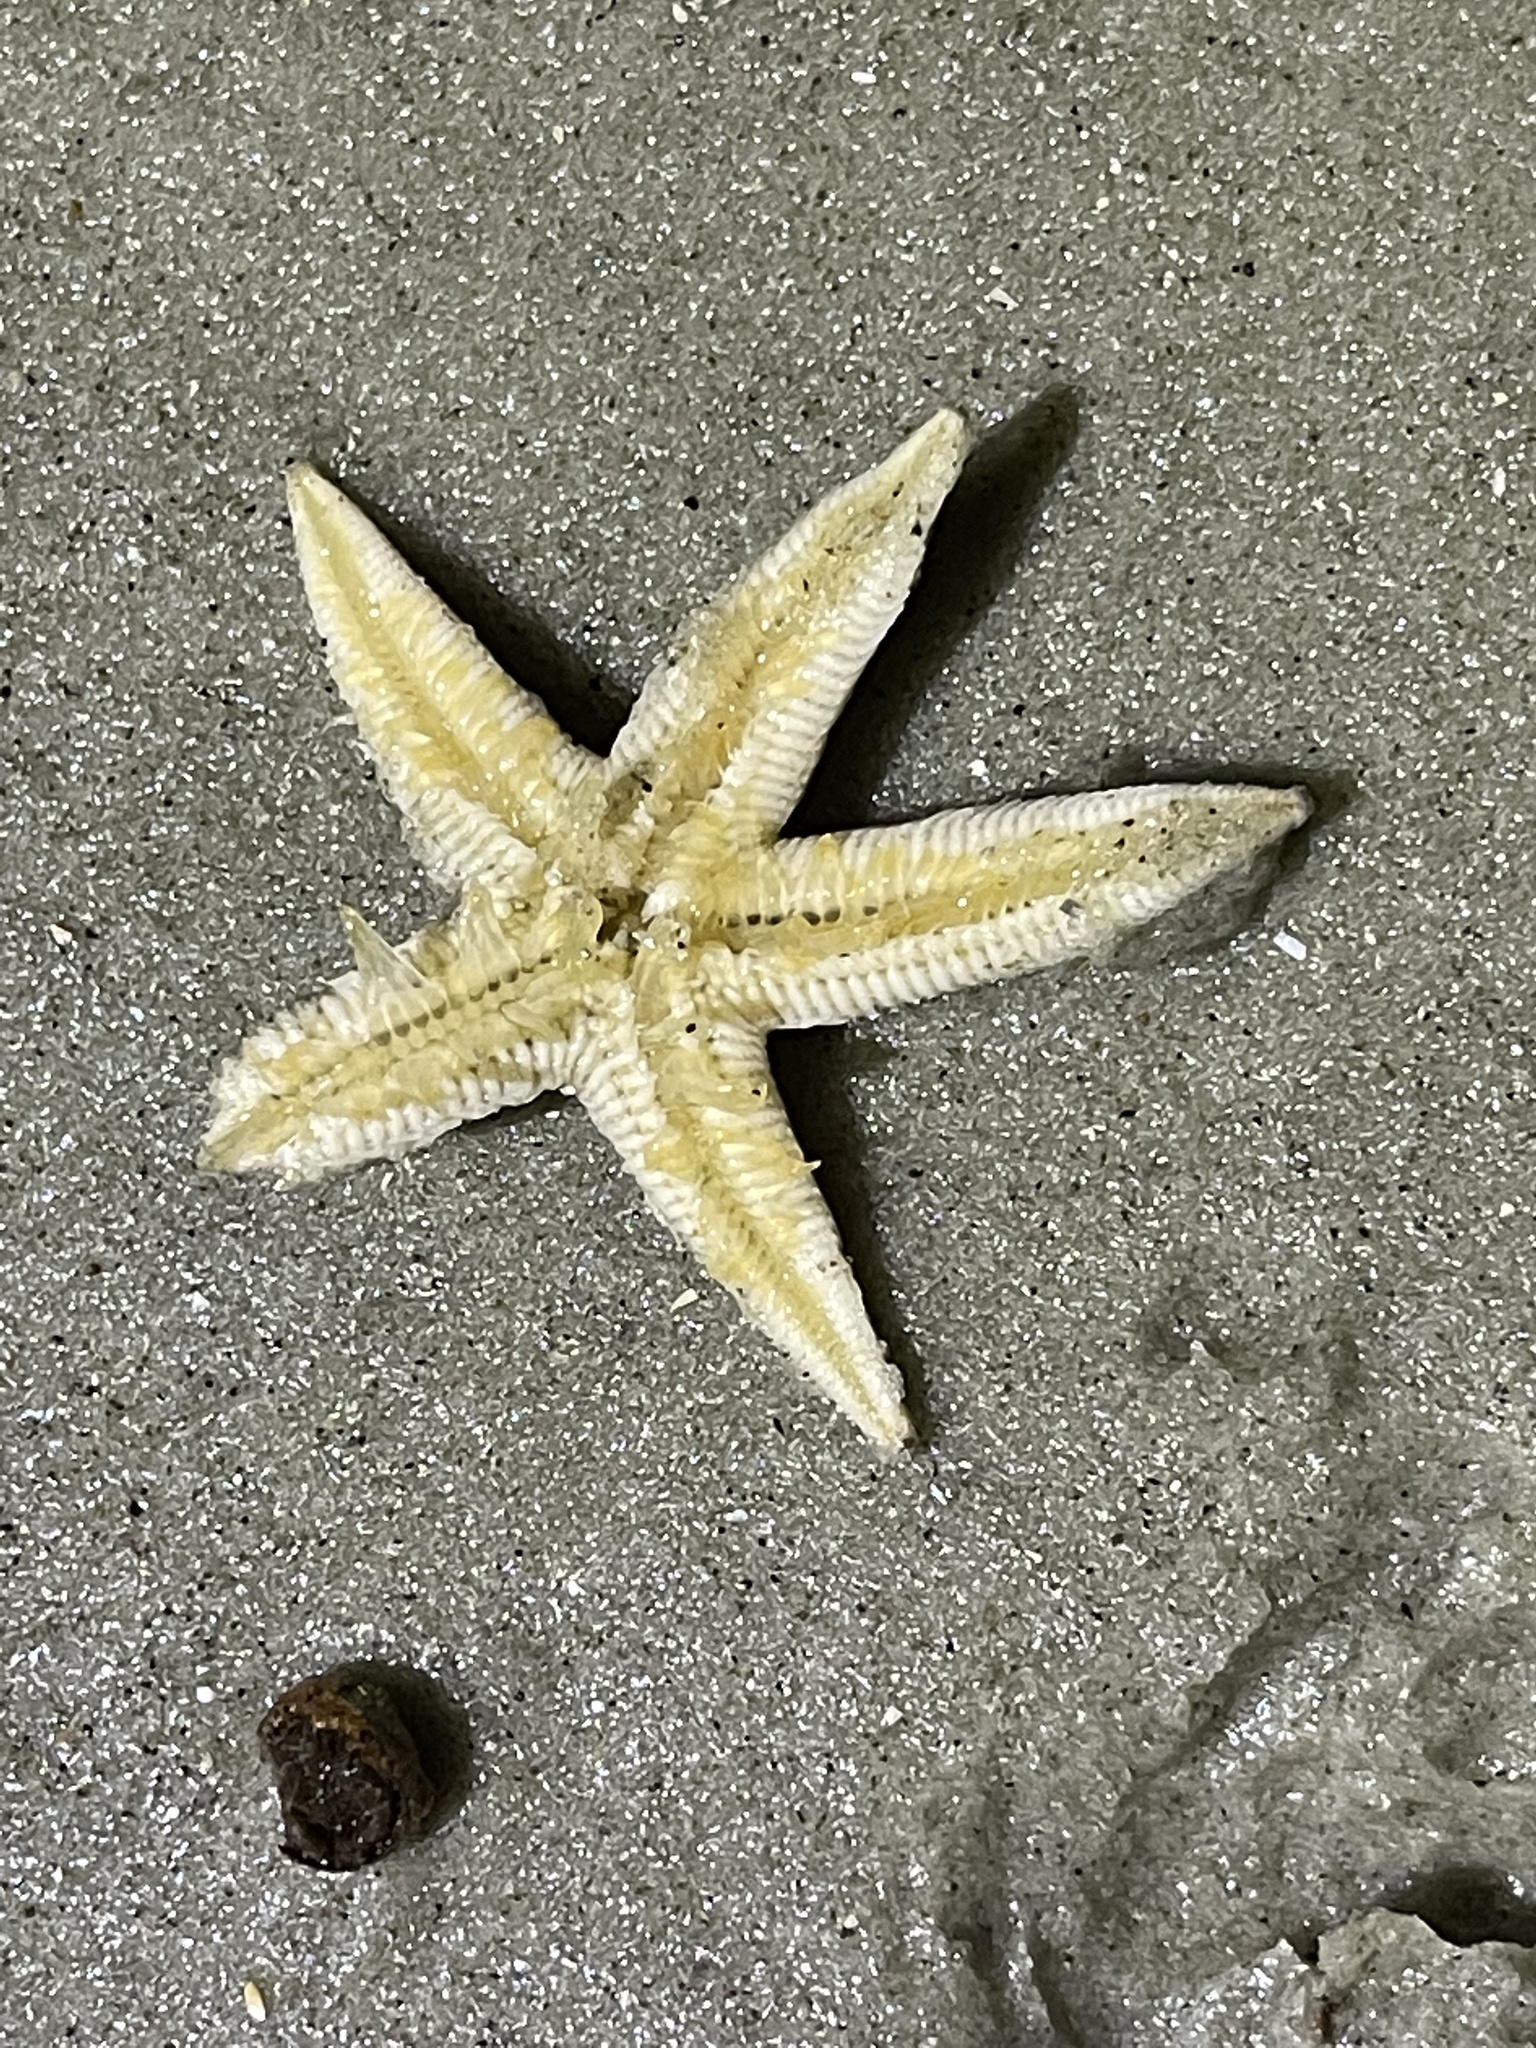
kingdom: Animalia
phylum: Echinodermata
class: Asteroidea
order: Paxillosida
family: Luidiidae
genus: Luidia
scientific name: Luidia clathrata
